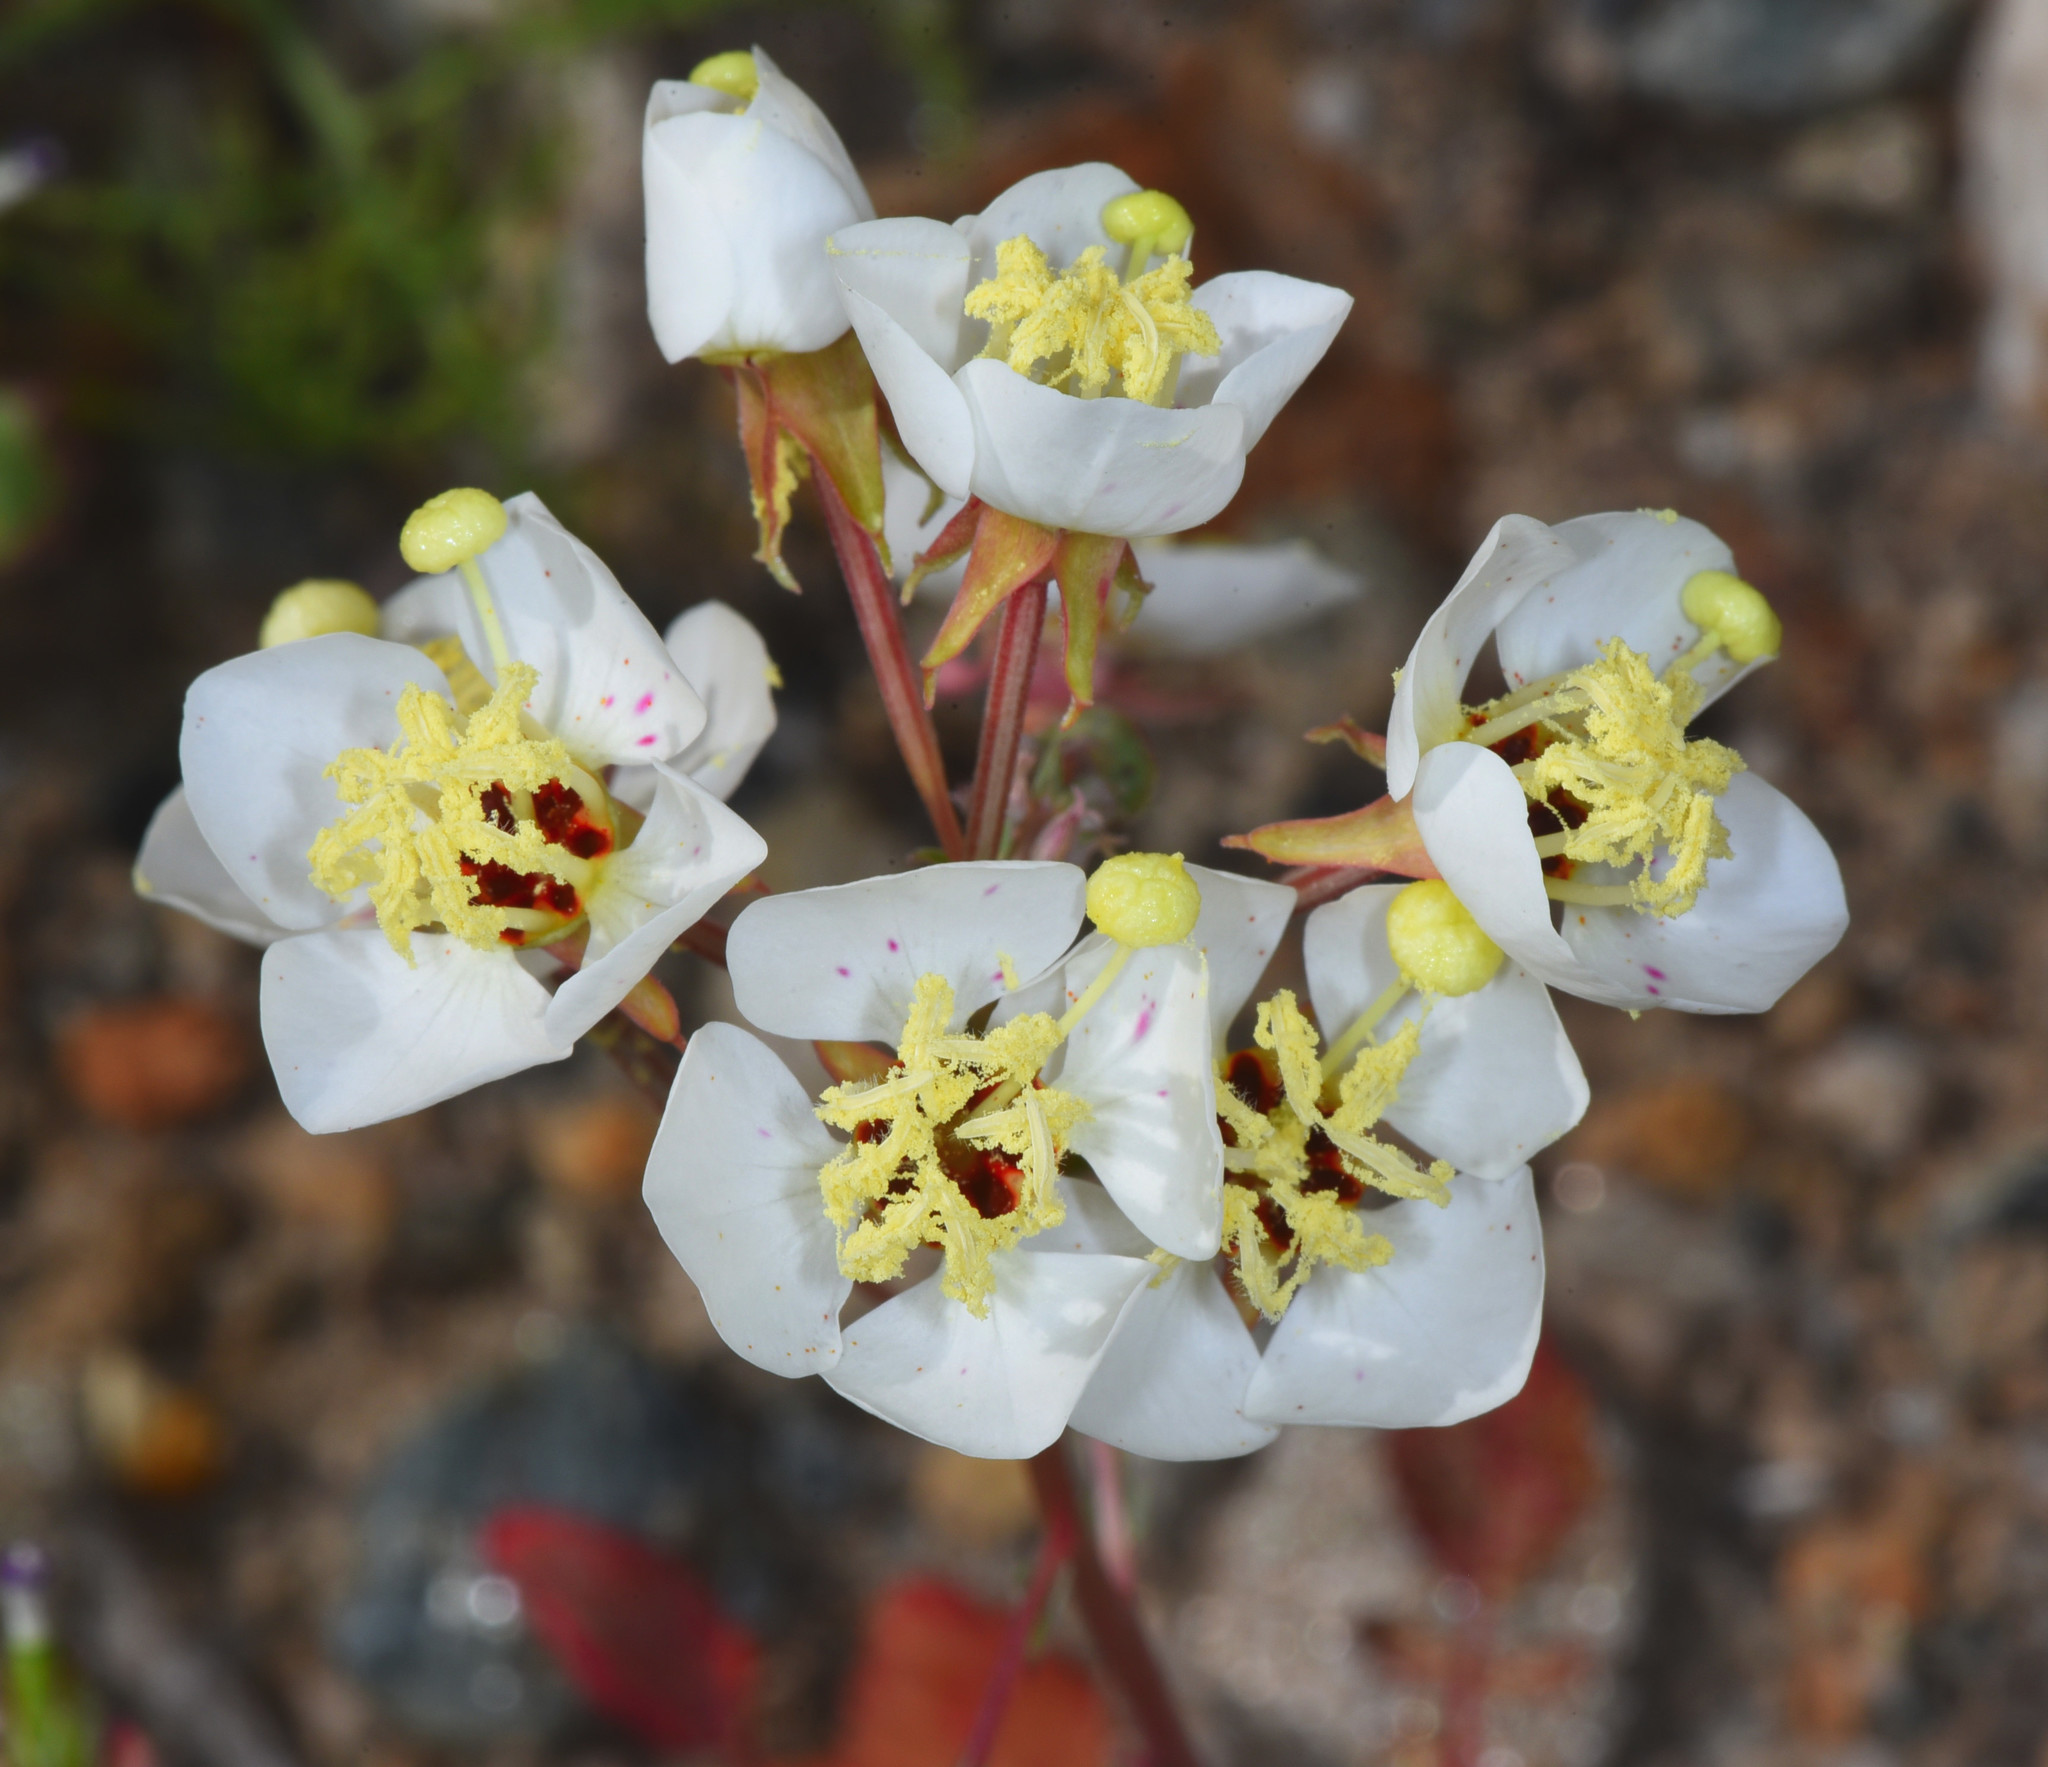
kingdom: Plantae
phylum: Tracheophyta
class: Magnoliopsida
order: Myrtales
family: Onagraceae
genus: Chylismia
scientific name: Chylismia claviformis
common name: Browneyes
